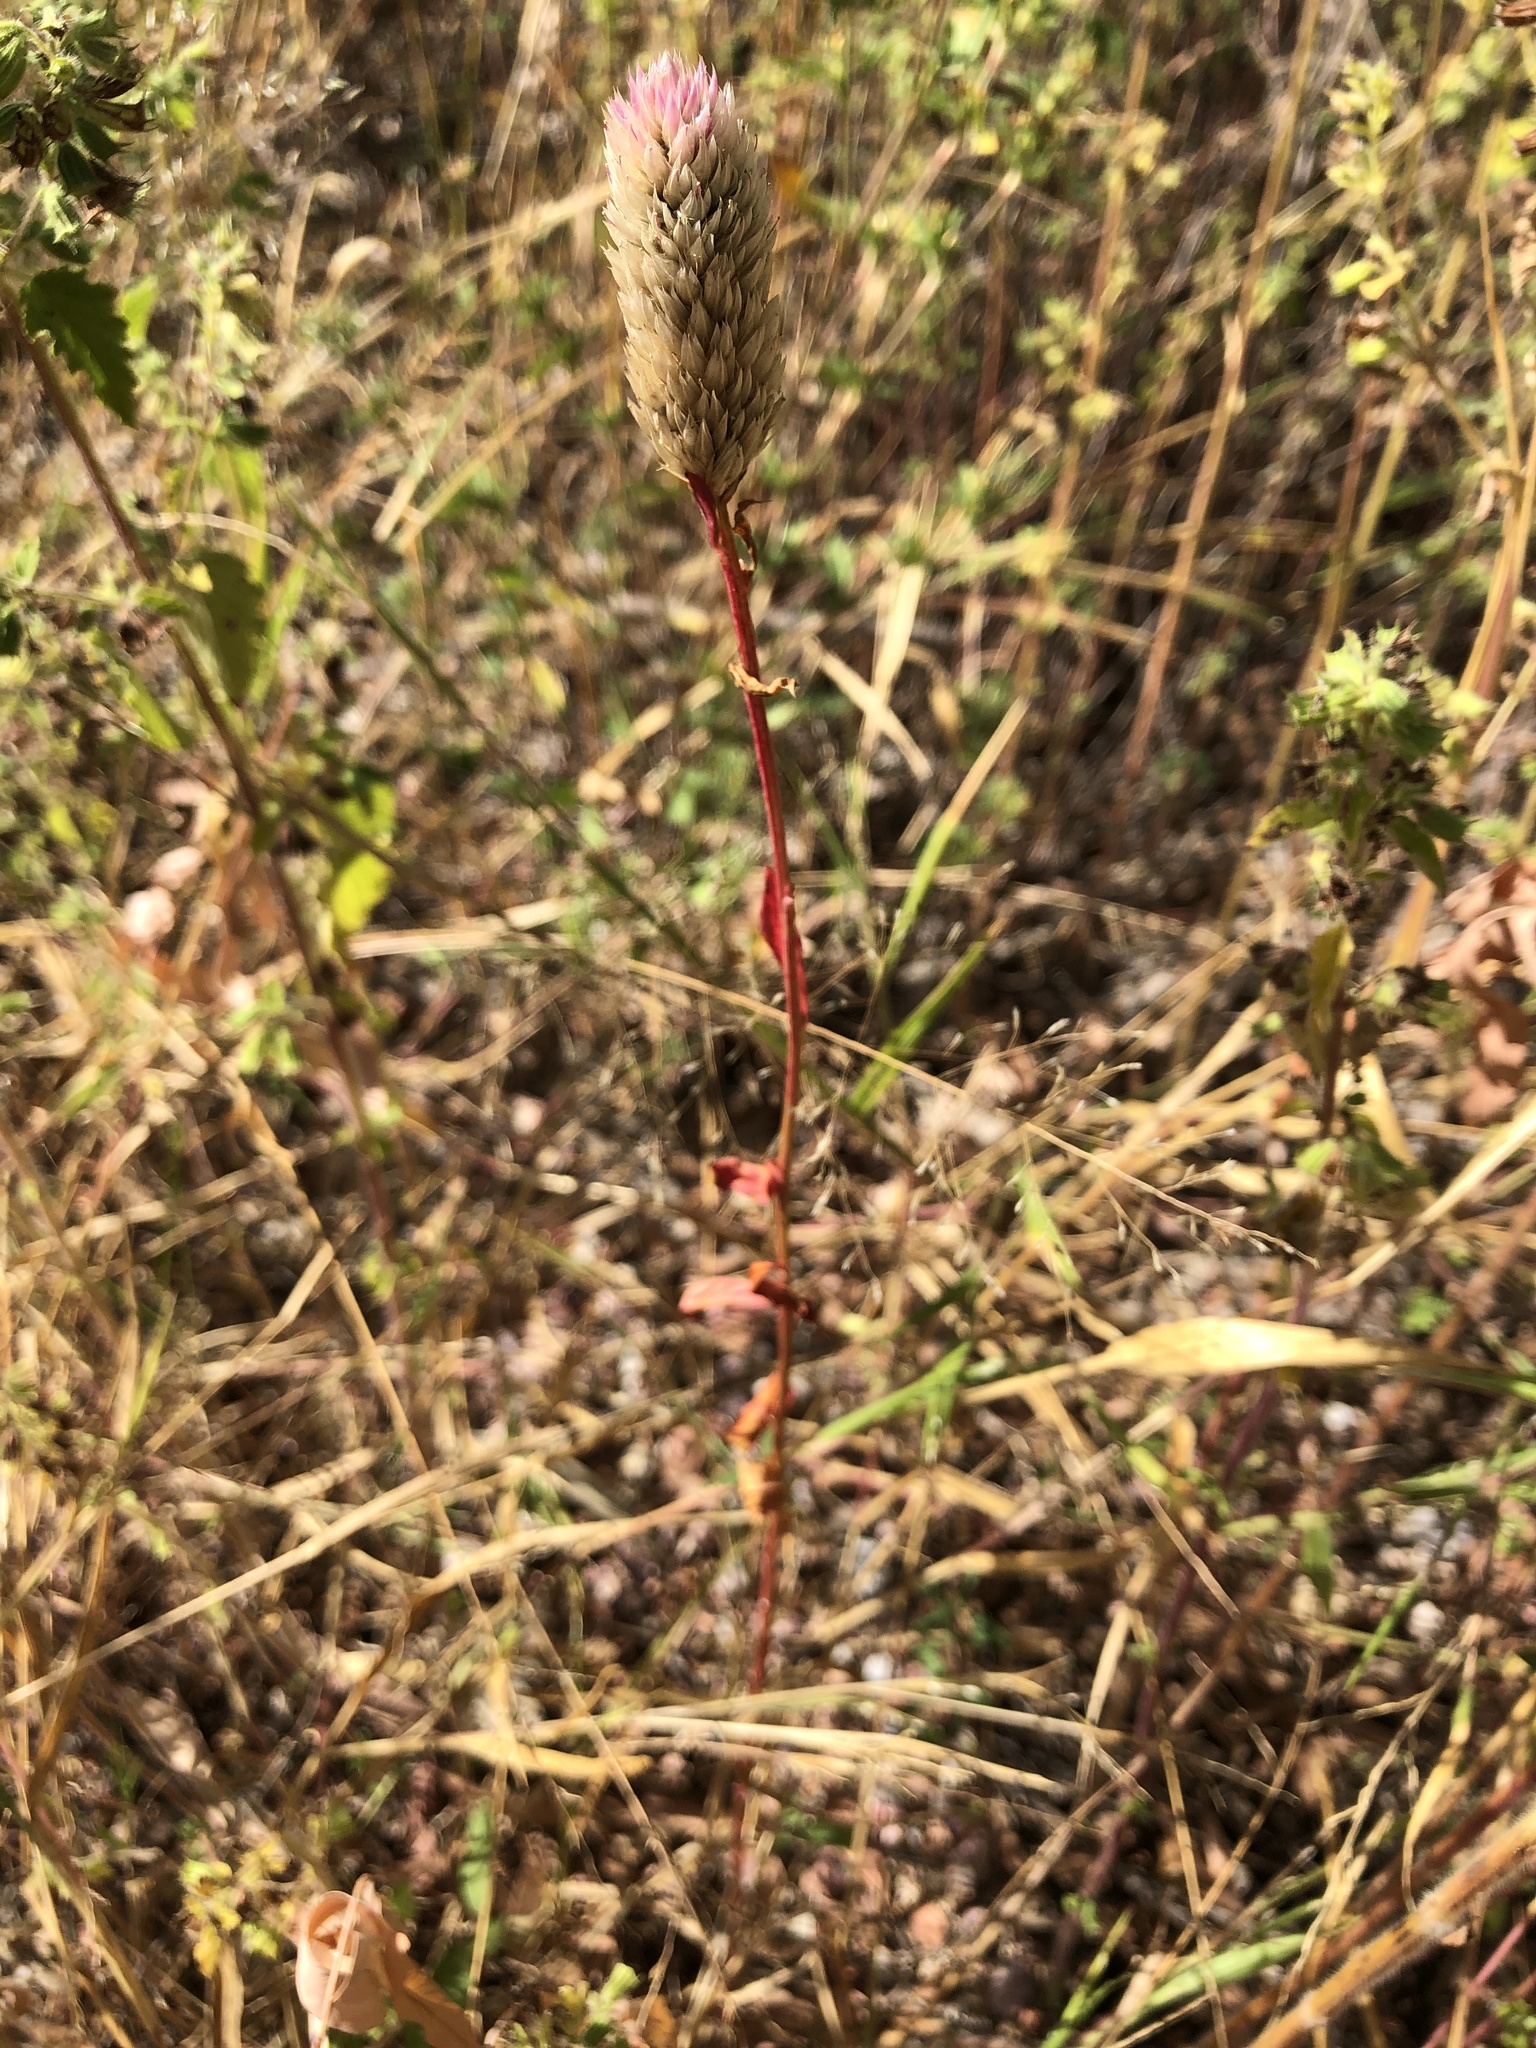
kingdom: Plantae
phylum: Tracheophyta
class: Magnoliopsida
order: Caryophyllales
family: Amaranthaceae
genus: Celosia
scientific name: Celosia argentea
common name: Feather cockscomb
